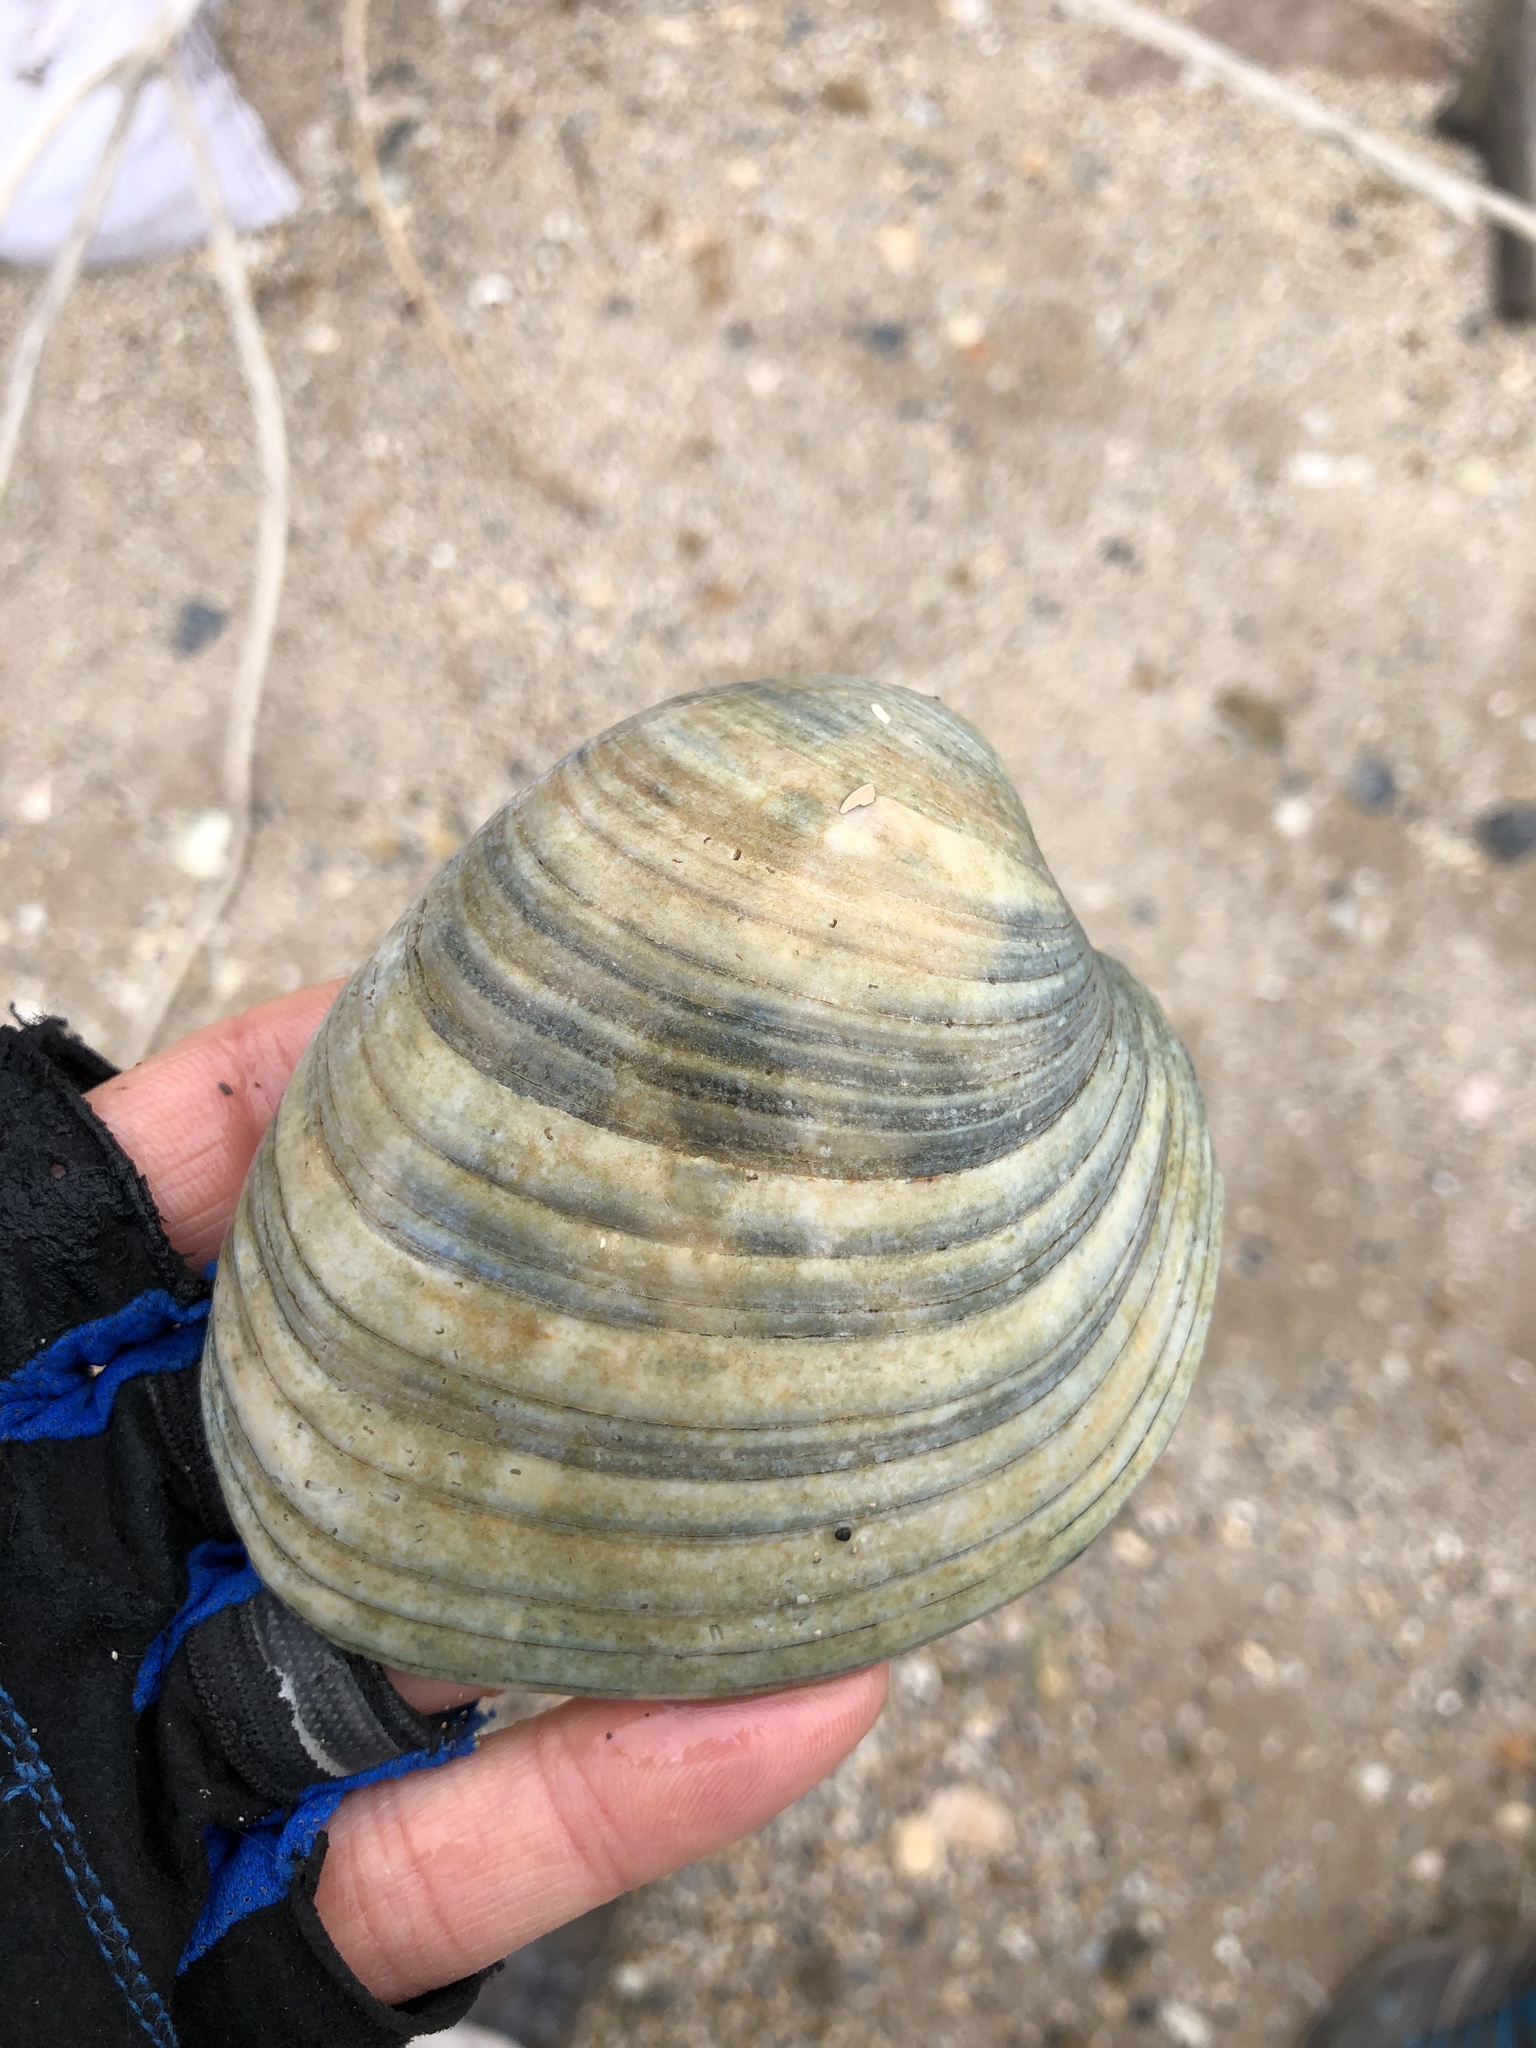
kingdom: Animalia
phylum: Mollusca
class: Bivalvia
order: Venerida
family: Veneridae
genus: Mercenaria
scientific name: Mercenaria campechiensis
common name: Südliche quahog-muschel
